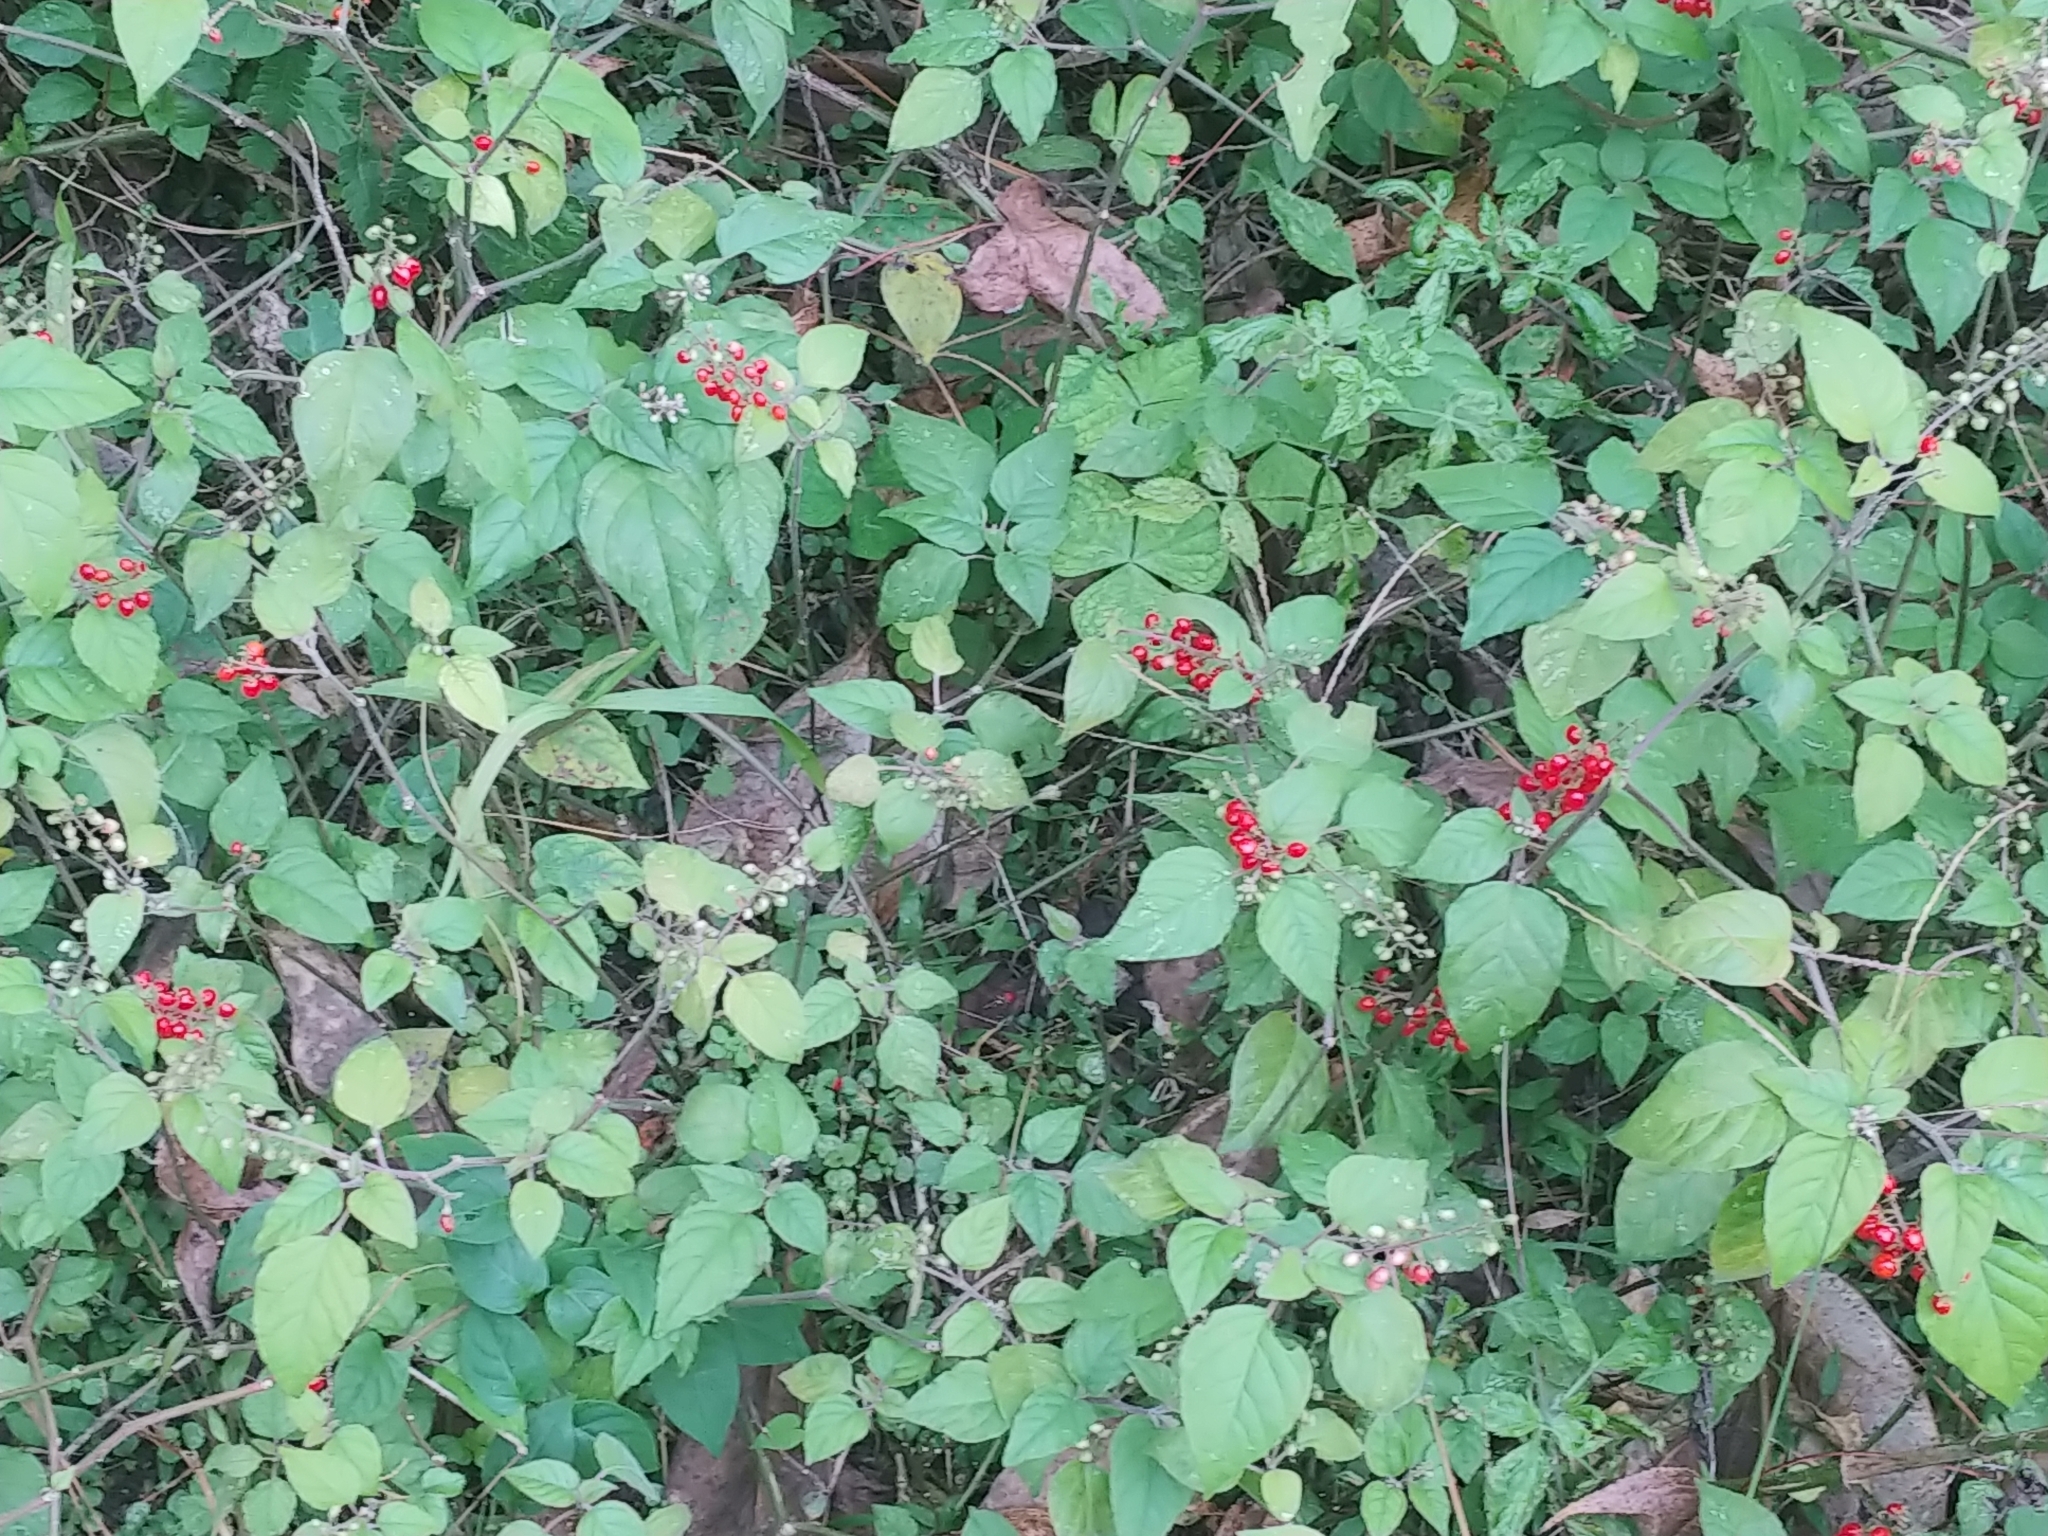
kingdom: Plantae
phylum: Tracheophyta
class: Magnoliopsida
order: Caryophyllales
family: Phytolaccaceae
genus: Rivina
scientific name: Rivina humilis
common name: Rougeplant
